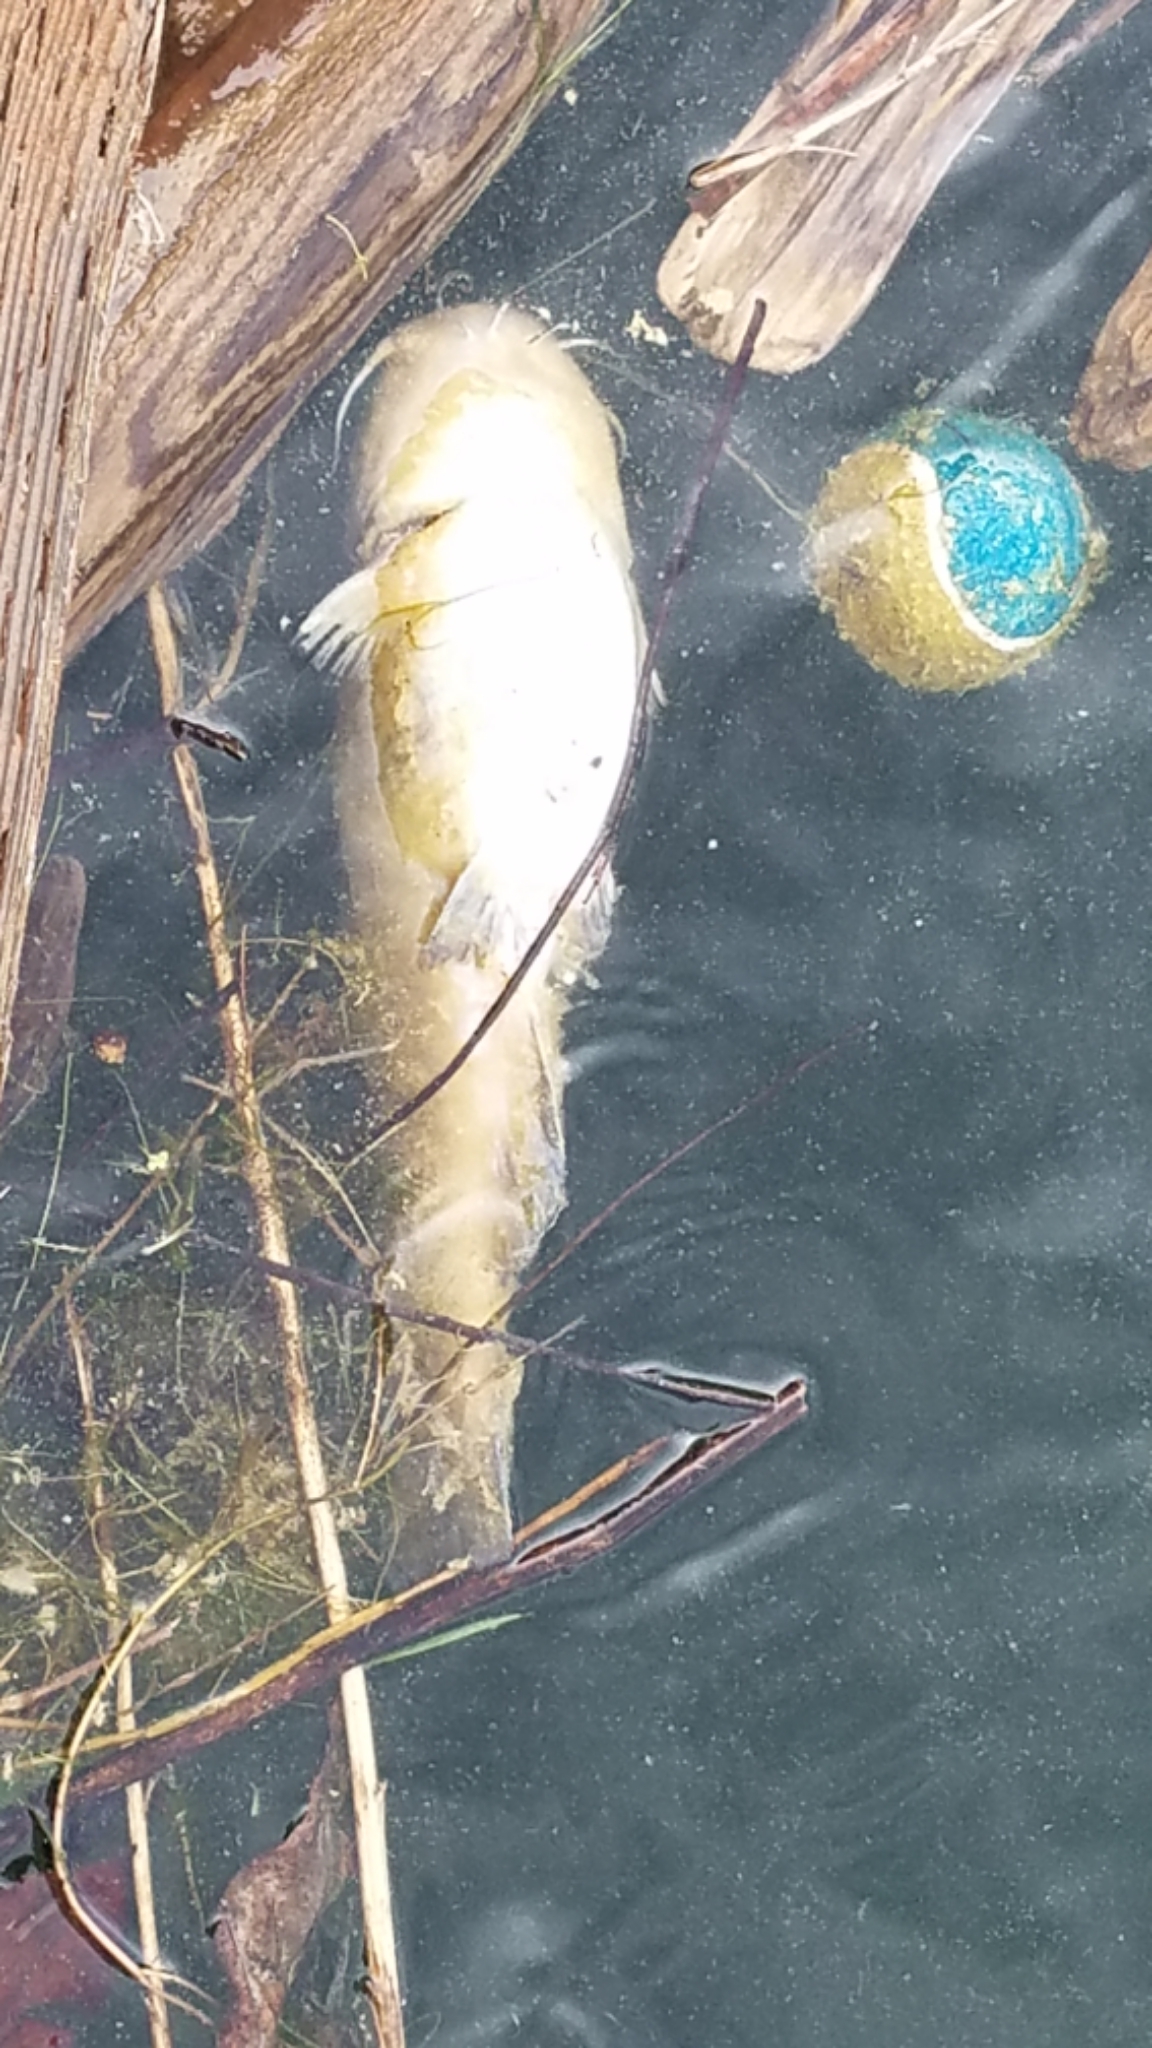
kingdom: Animalia
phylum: Chordata
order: Siluriformes
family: Ictaluridae
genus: Ameiurus
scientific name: Ameiurus natalis
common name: Yellow bullhead
